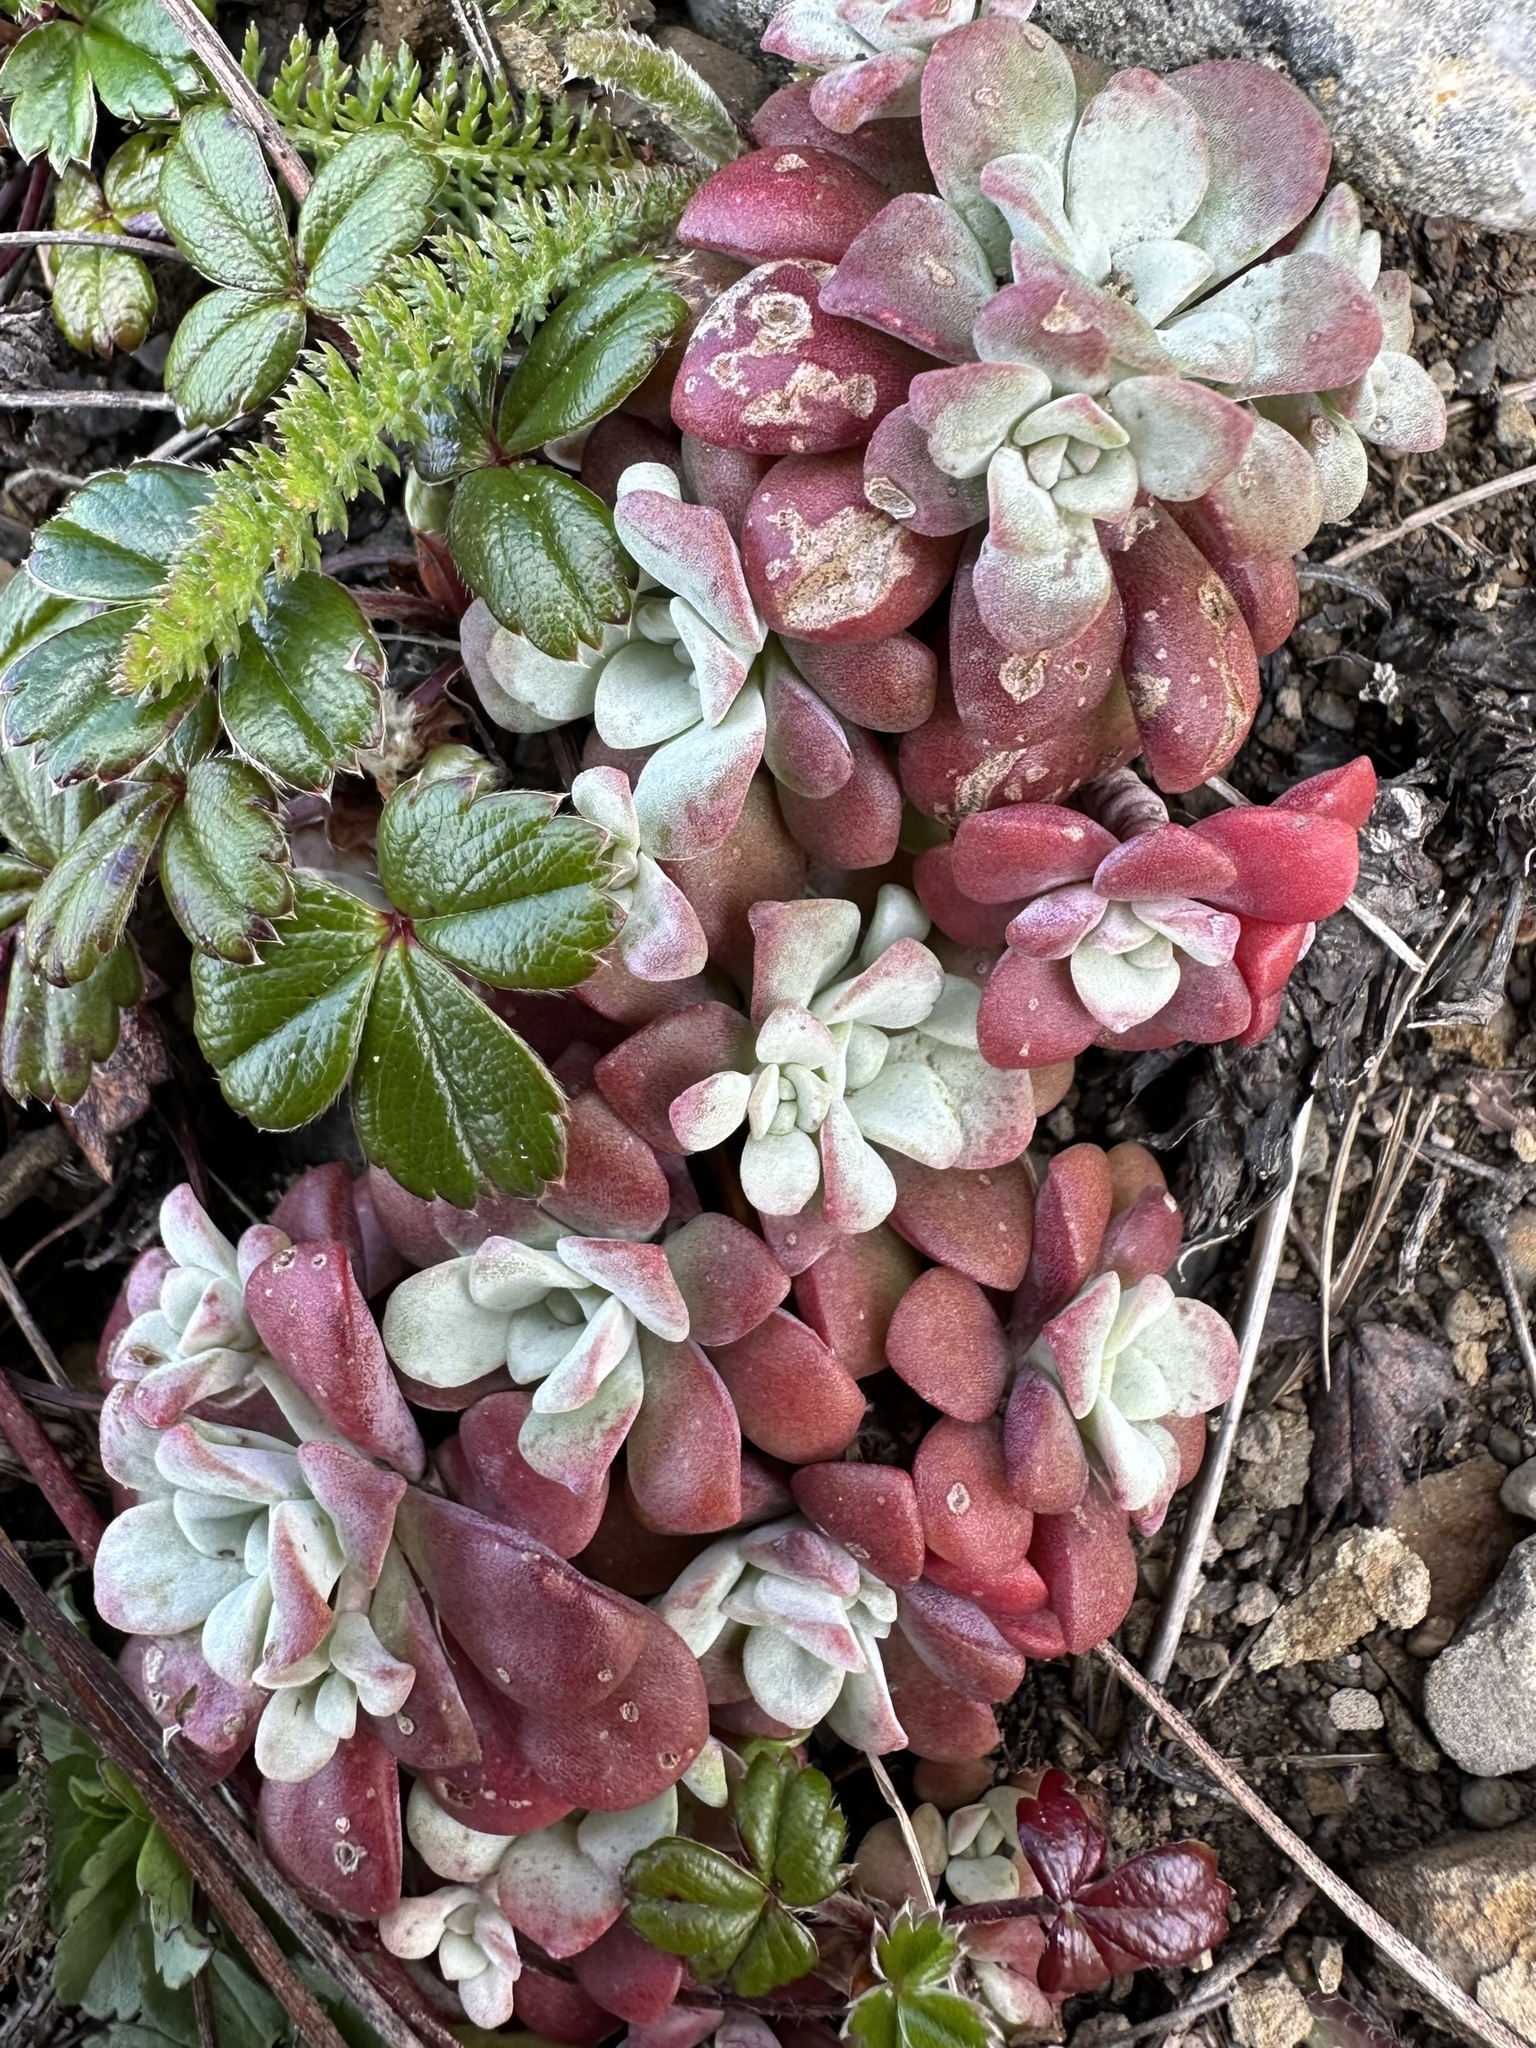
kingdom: Plantae
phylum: Tracheophyta
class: Magnoliopsida
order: Saxifragales
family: Crassulaceae
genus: Sedum
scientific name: Sedum spathulifolium
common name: Colorado stonecrop
